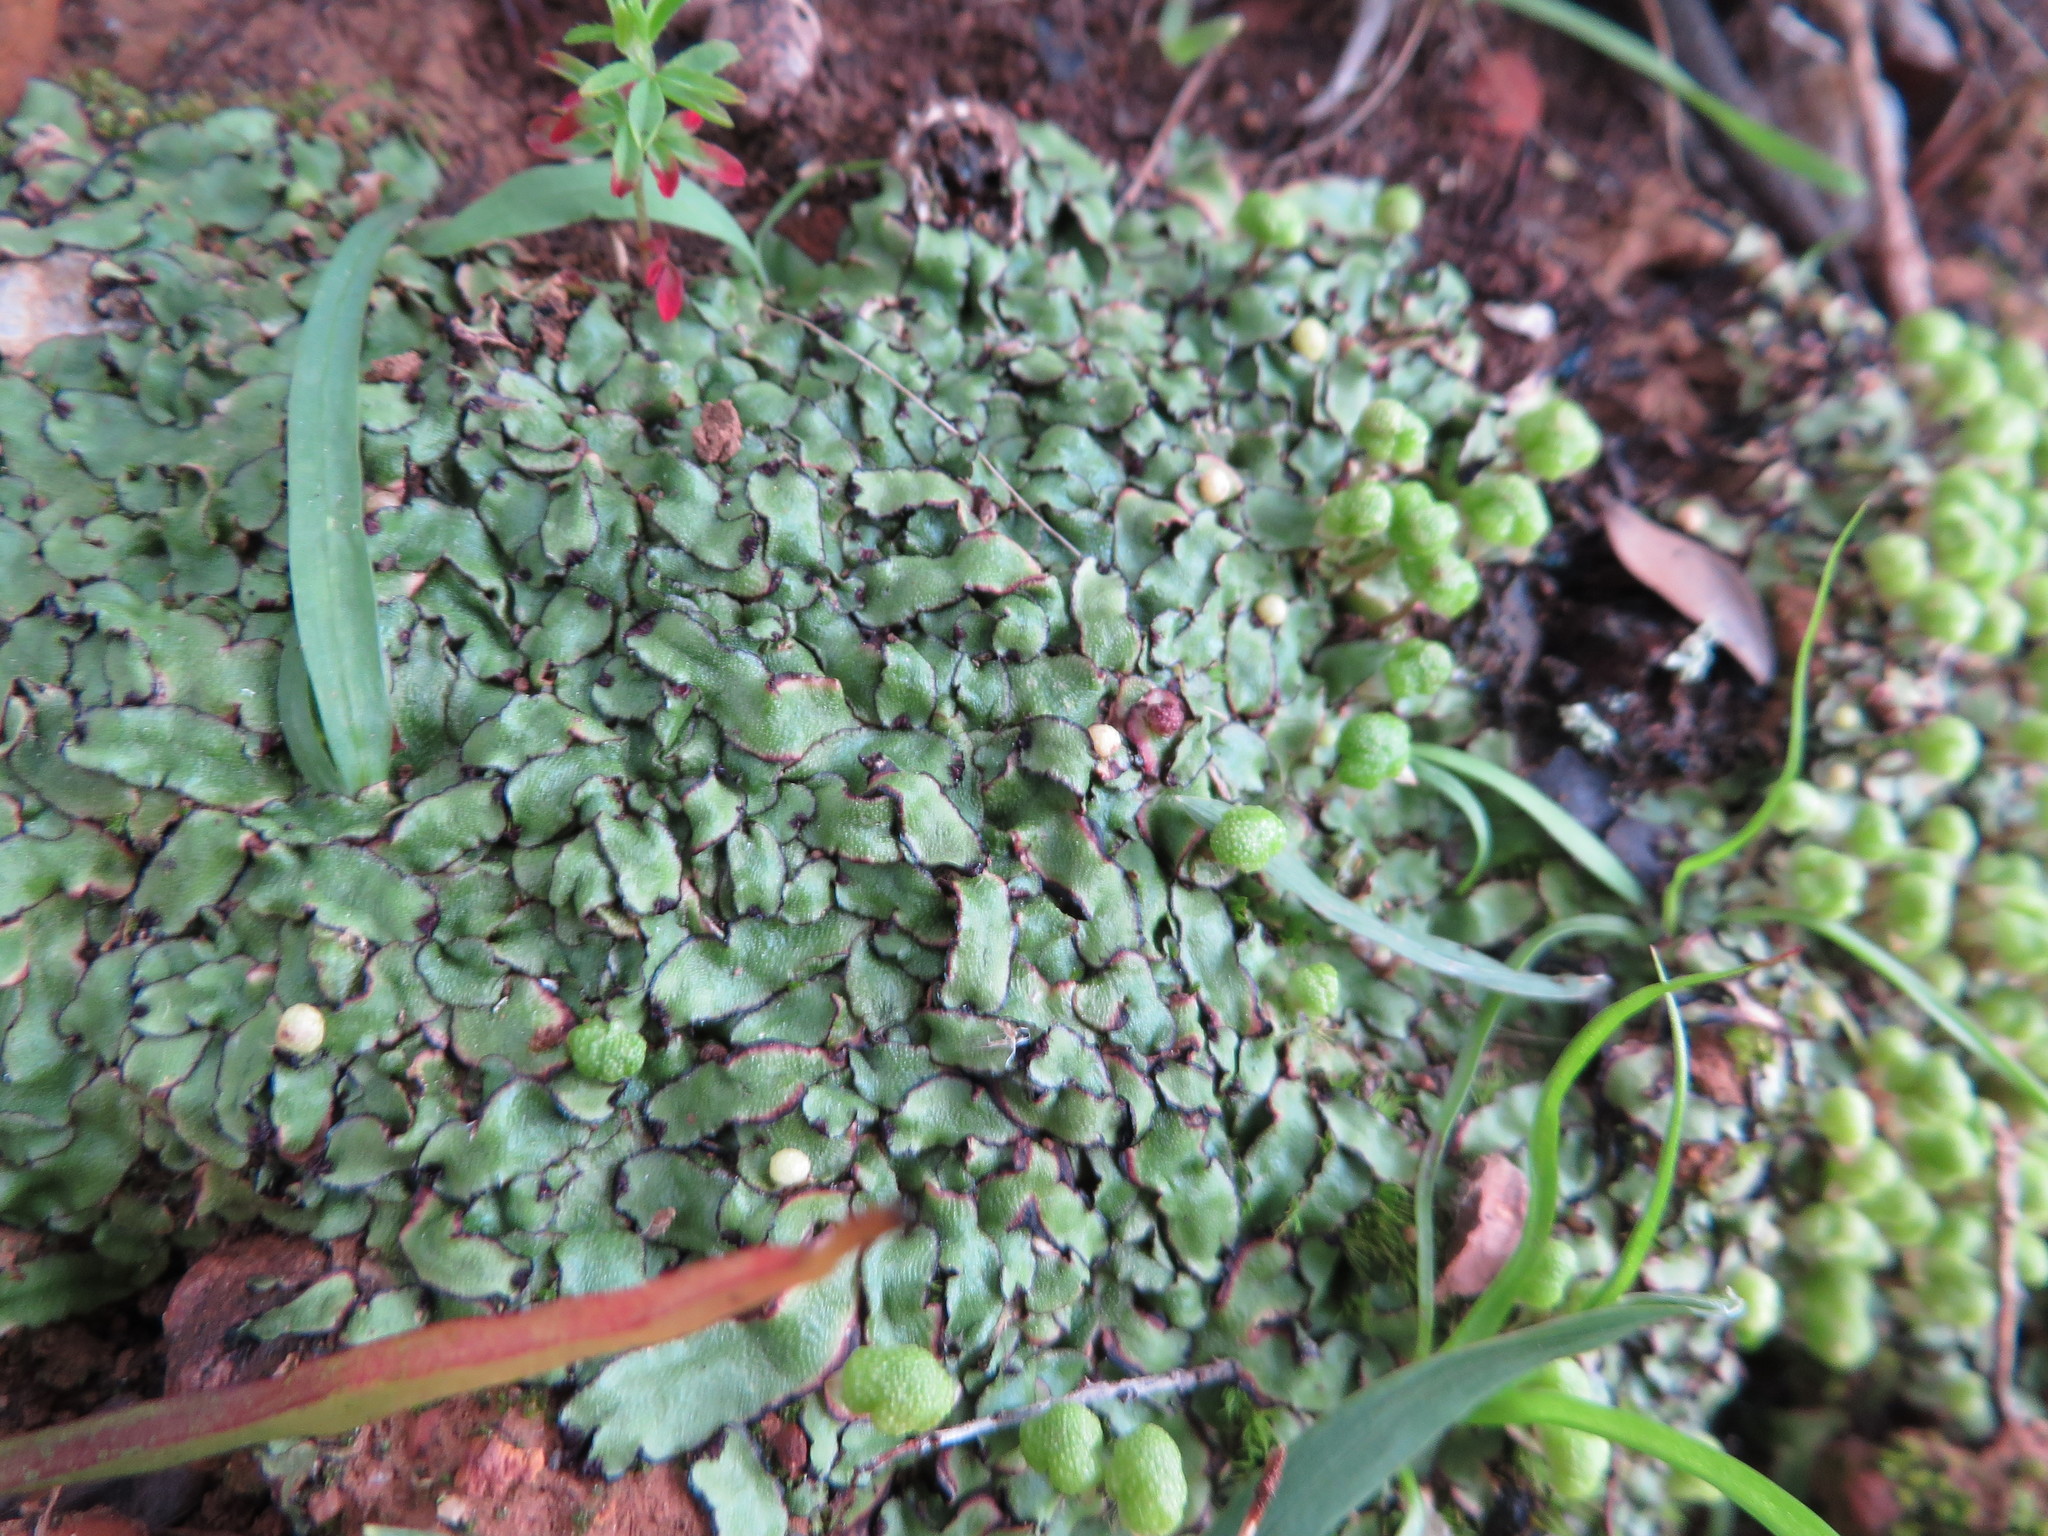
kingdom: Plantae
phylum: Marchantiophyta
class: Marchantiopsida
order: Marchantiales
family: Aytoniaceae
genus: Asterella
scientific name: Asterella marginata
